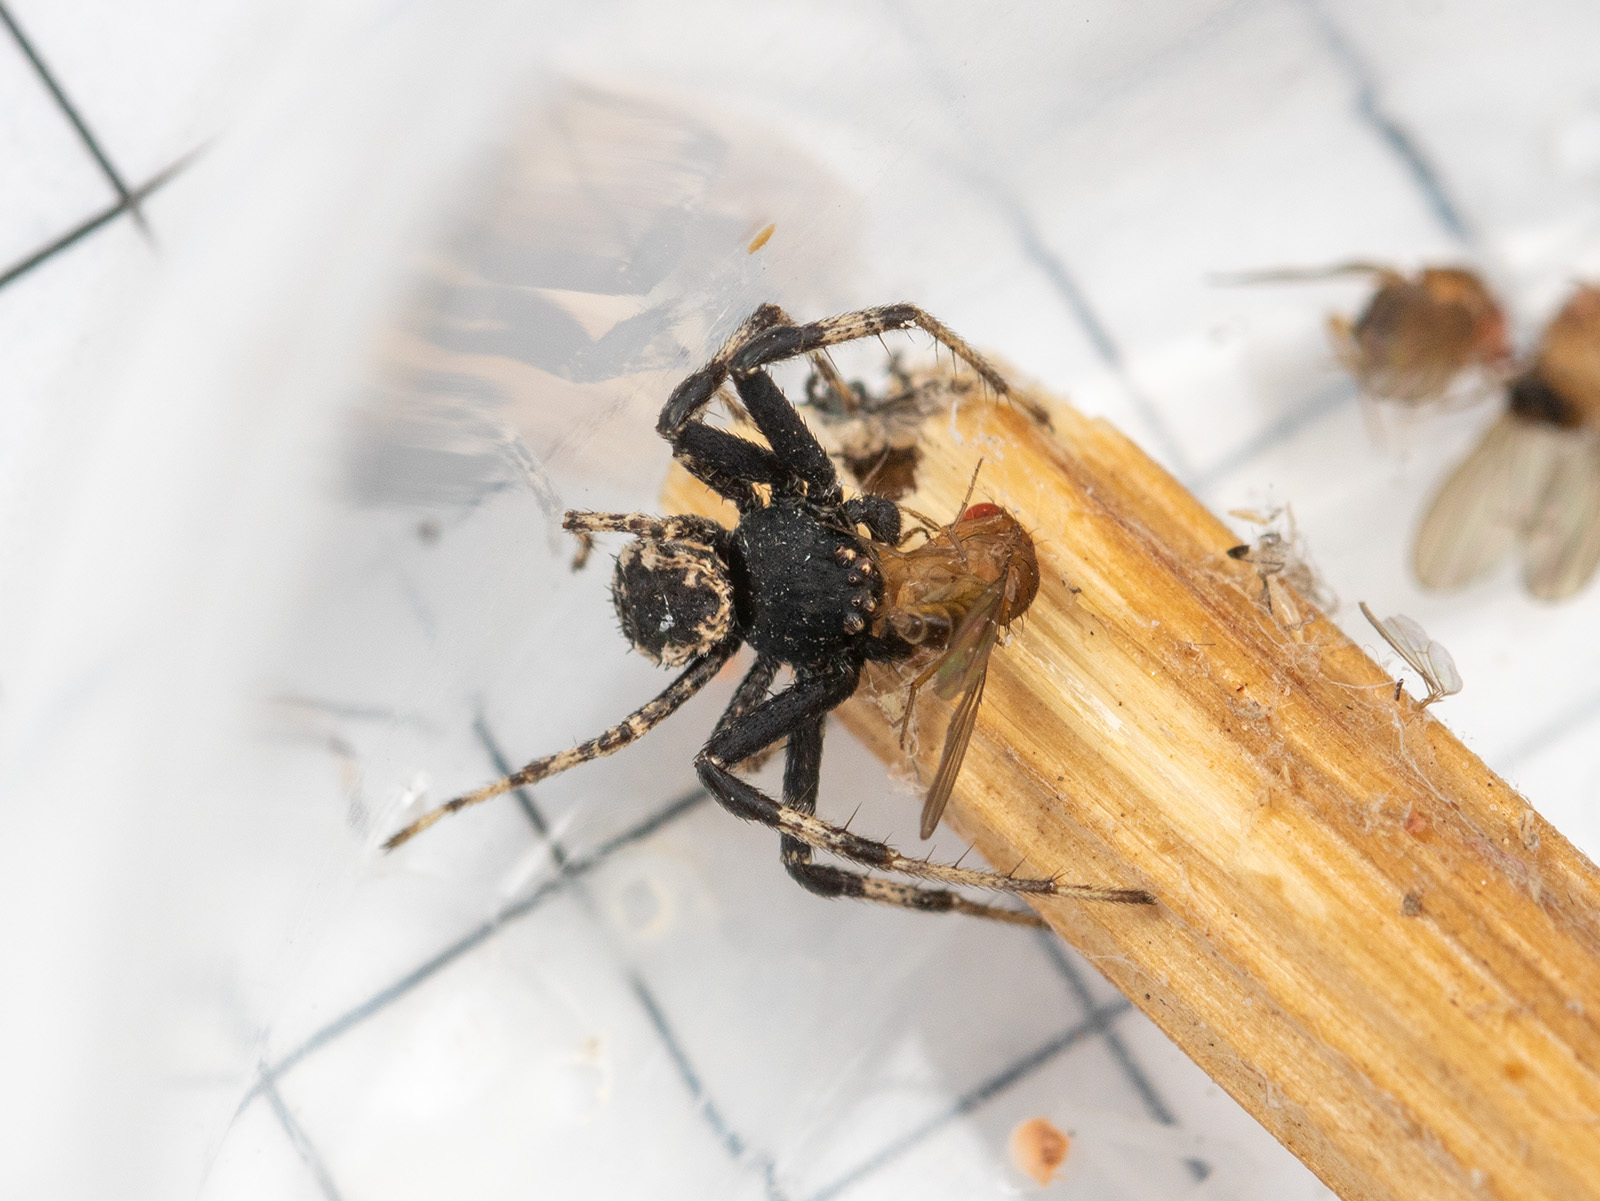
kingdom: Animalia
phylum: Arthropoda
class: Arachnida
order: Araneae
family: Thomisidae
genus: Ozyptila
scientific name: Ozyptila lugubris
